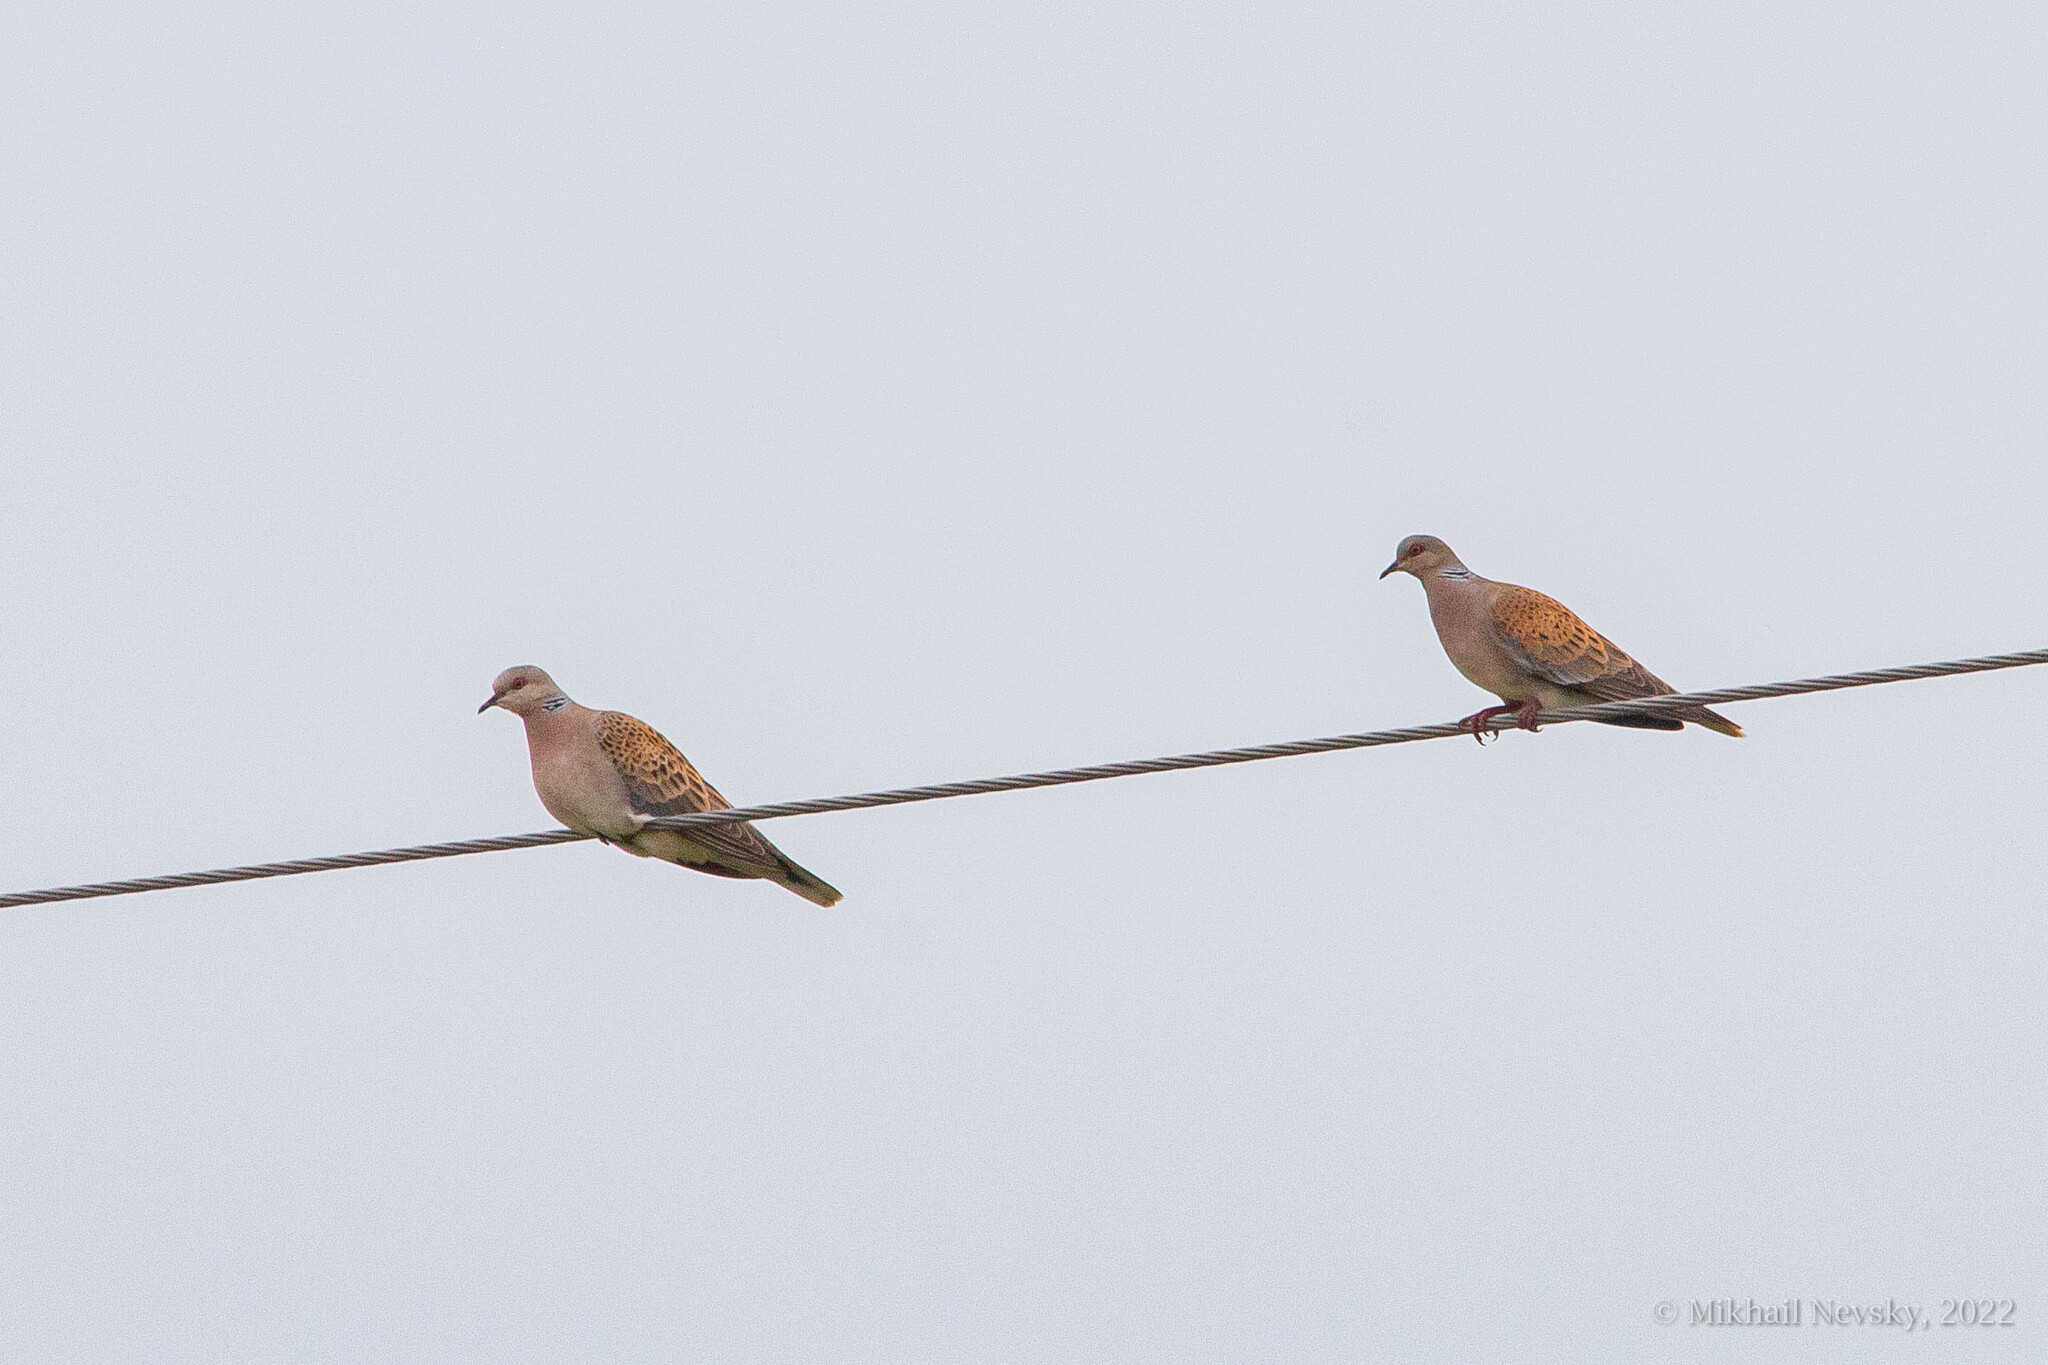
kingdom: Animalia
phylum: Chordata
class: Aves
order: Columbiformes
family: Columbidae
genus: Streptopelia
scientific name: Streptopelia turtur
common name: European turtle dove
